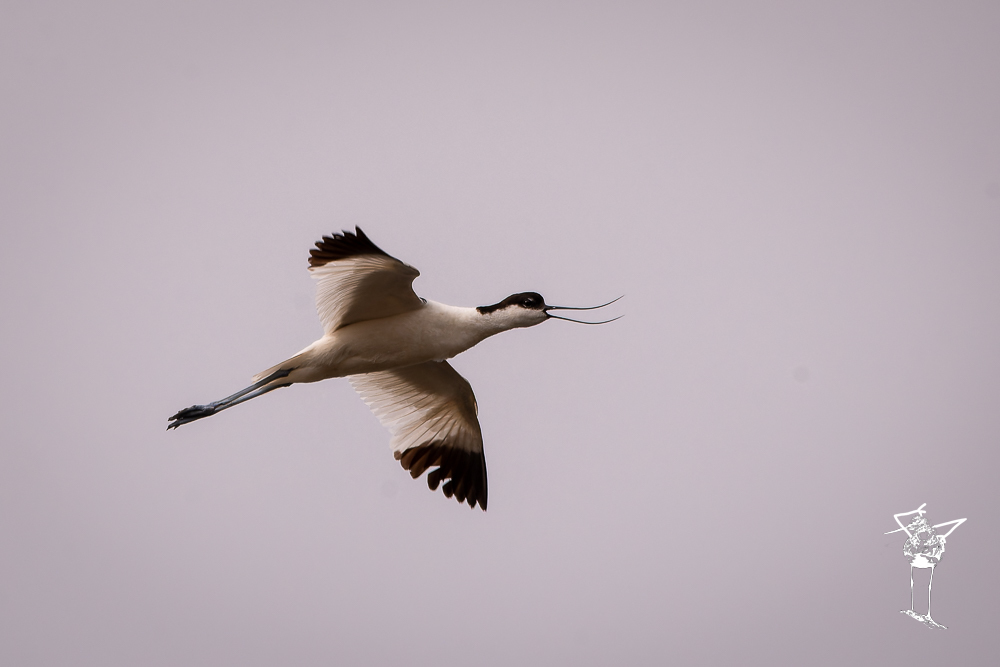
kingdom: Animalia
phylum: Chordata
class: Aves
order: Charadriiformes
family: Recurvirostridae
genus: Recurvirostra
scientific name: Recurvirostra avosetta
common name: Pied avocet
